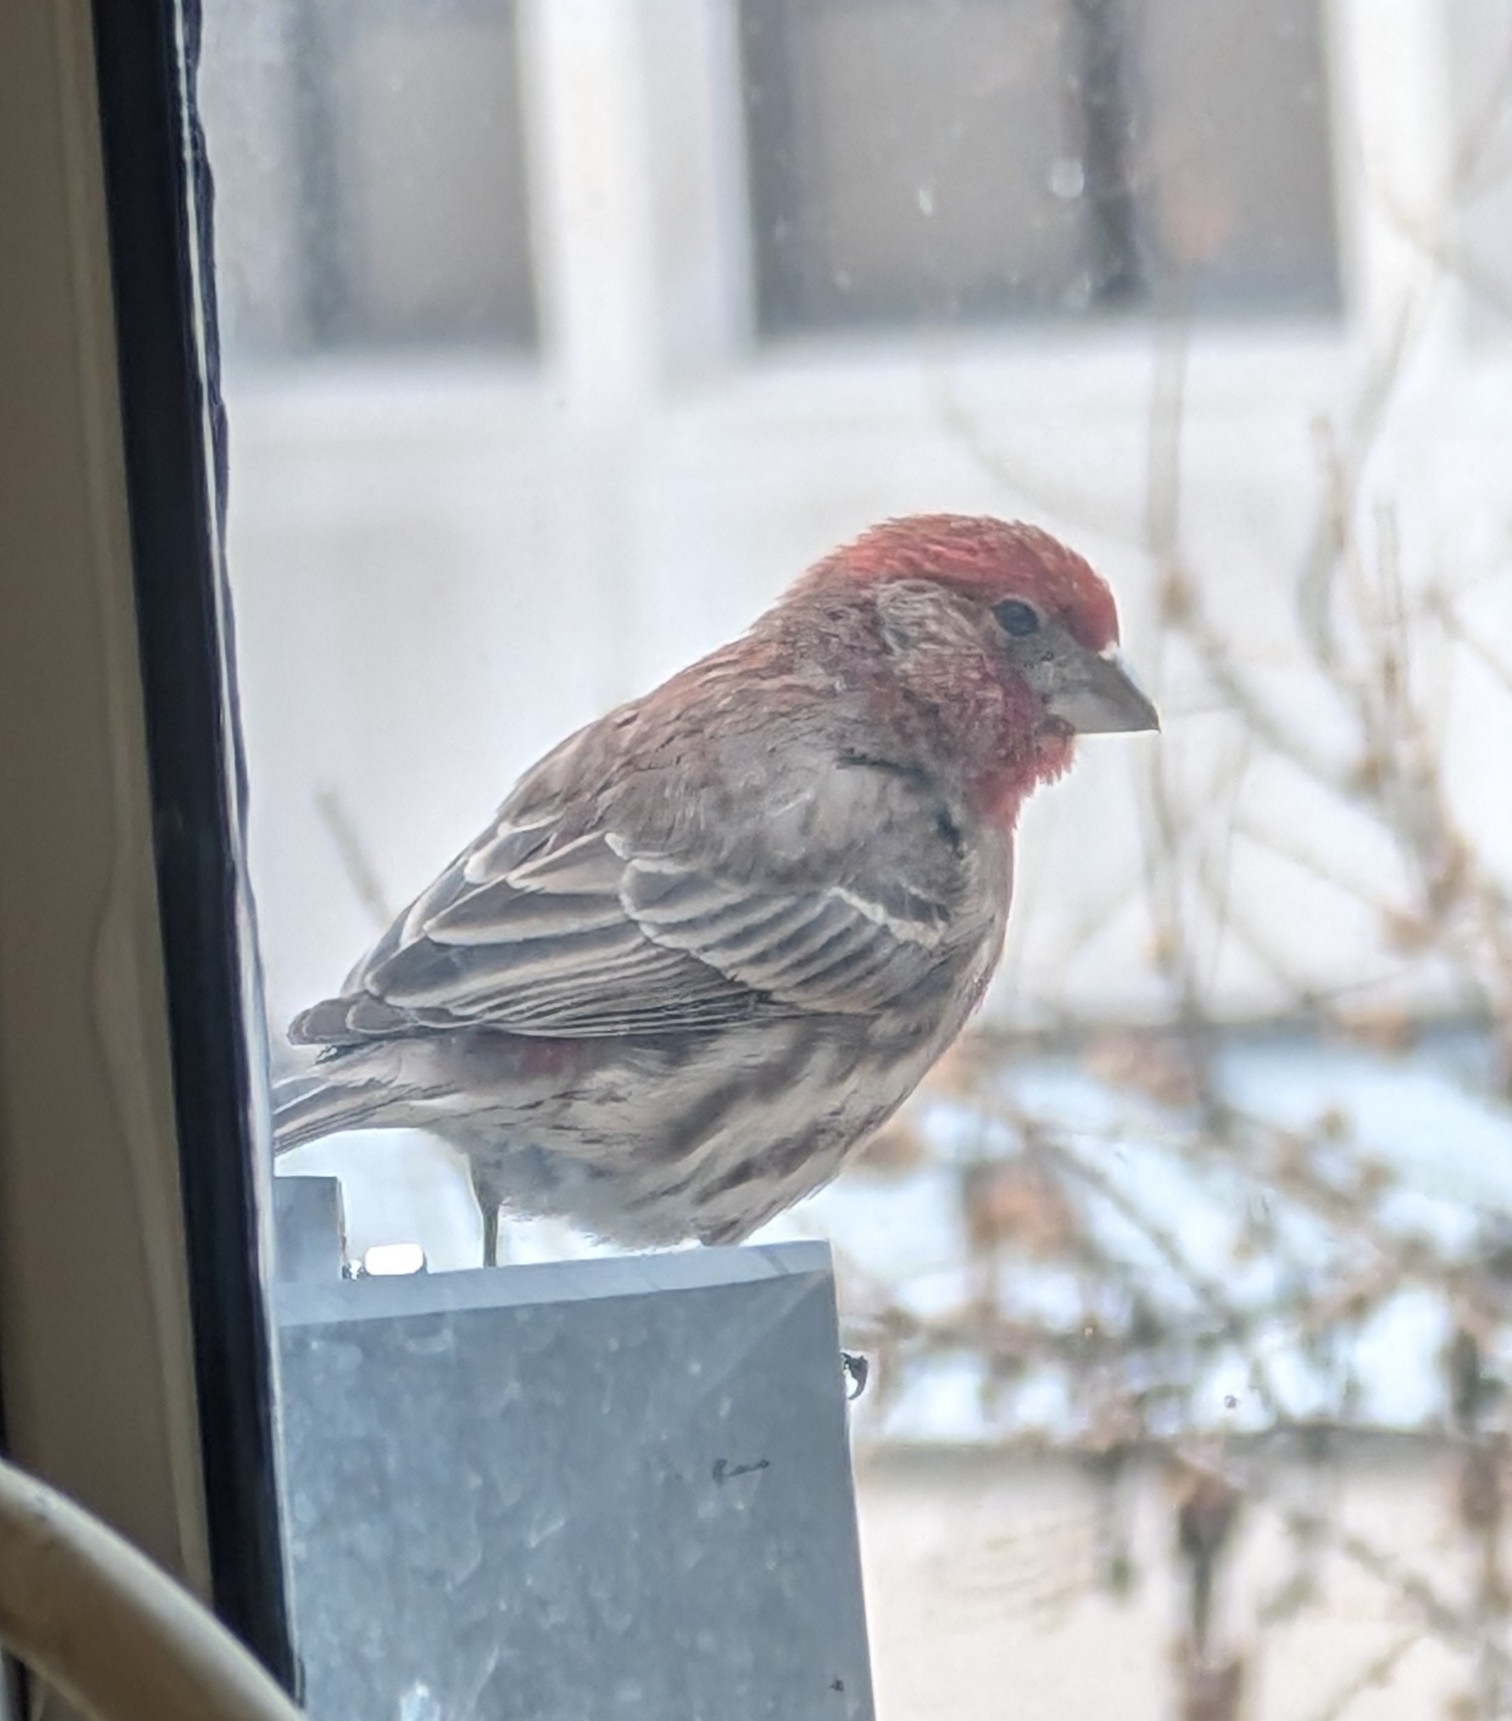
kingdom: Animalia
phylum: Chordata
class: Aves
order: Passeriformes
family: Fringillidae
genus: Haemorhous
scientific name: Haemorhous mexicanus
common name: House finch
